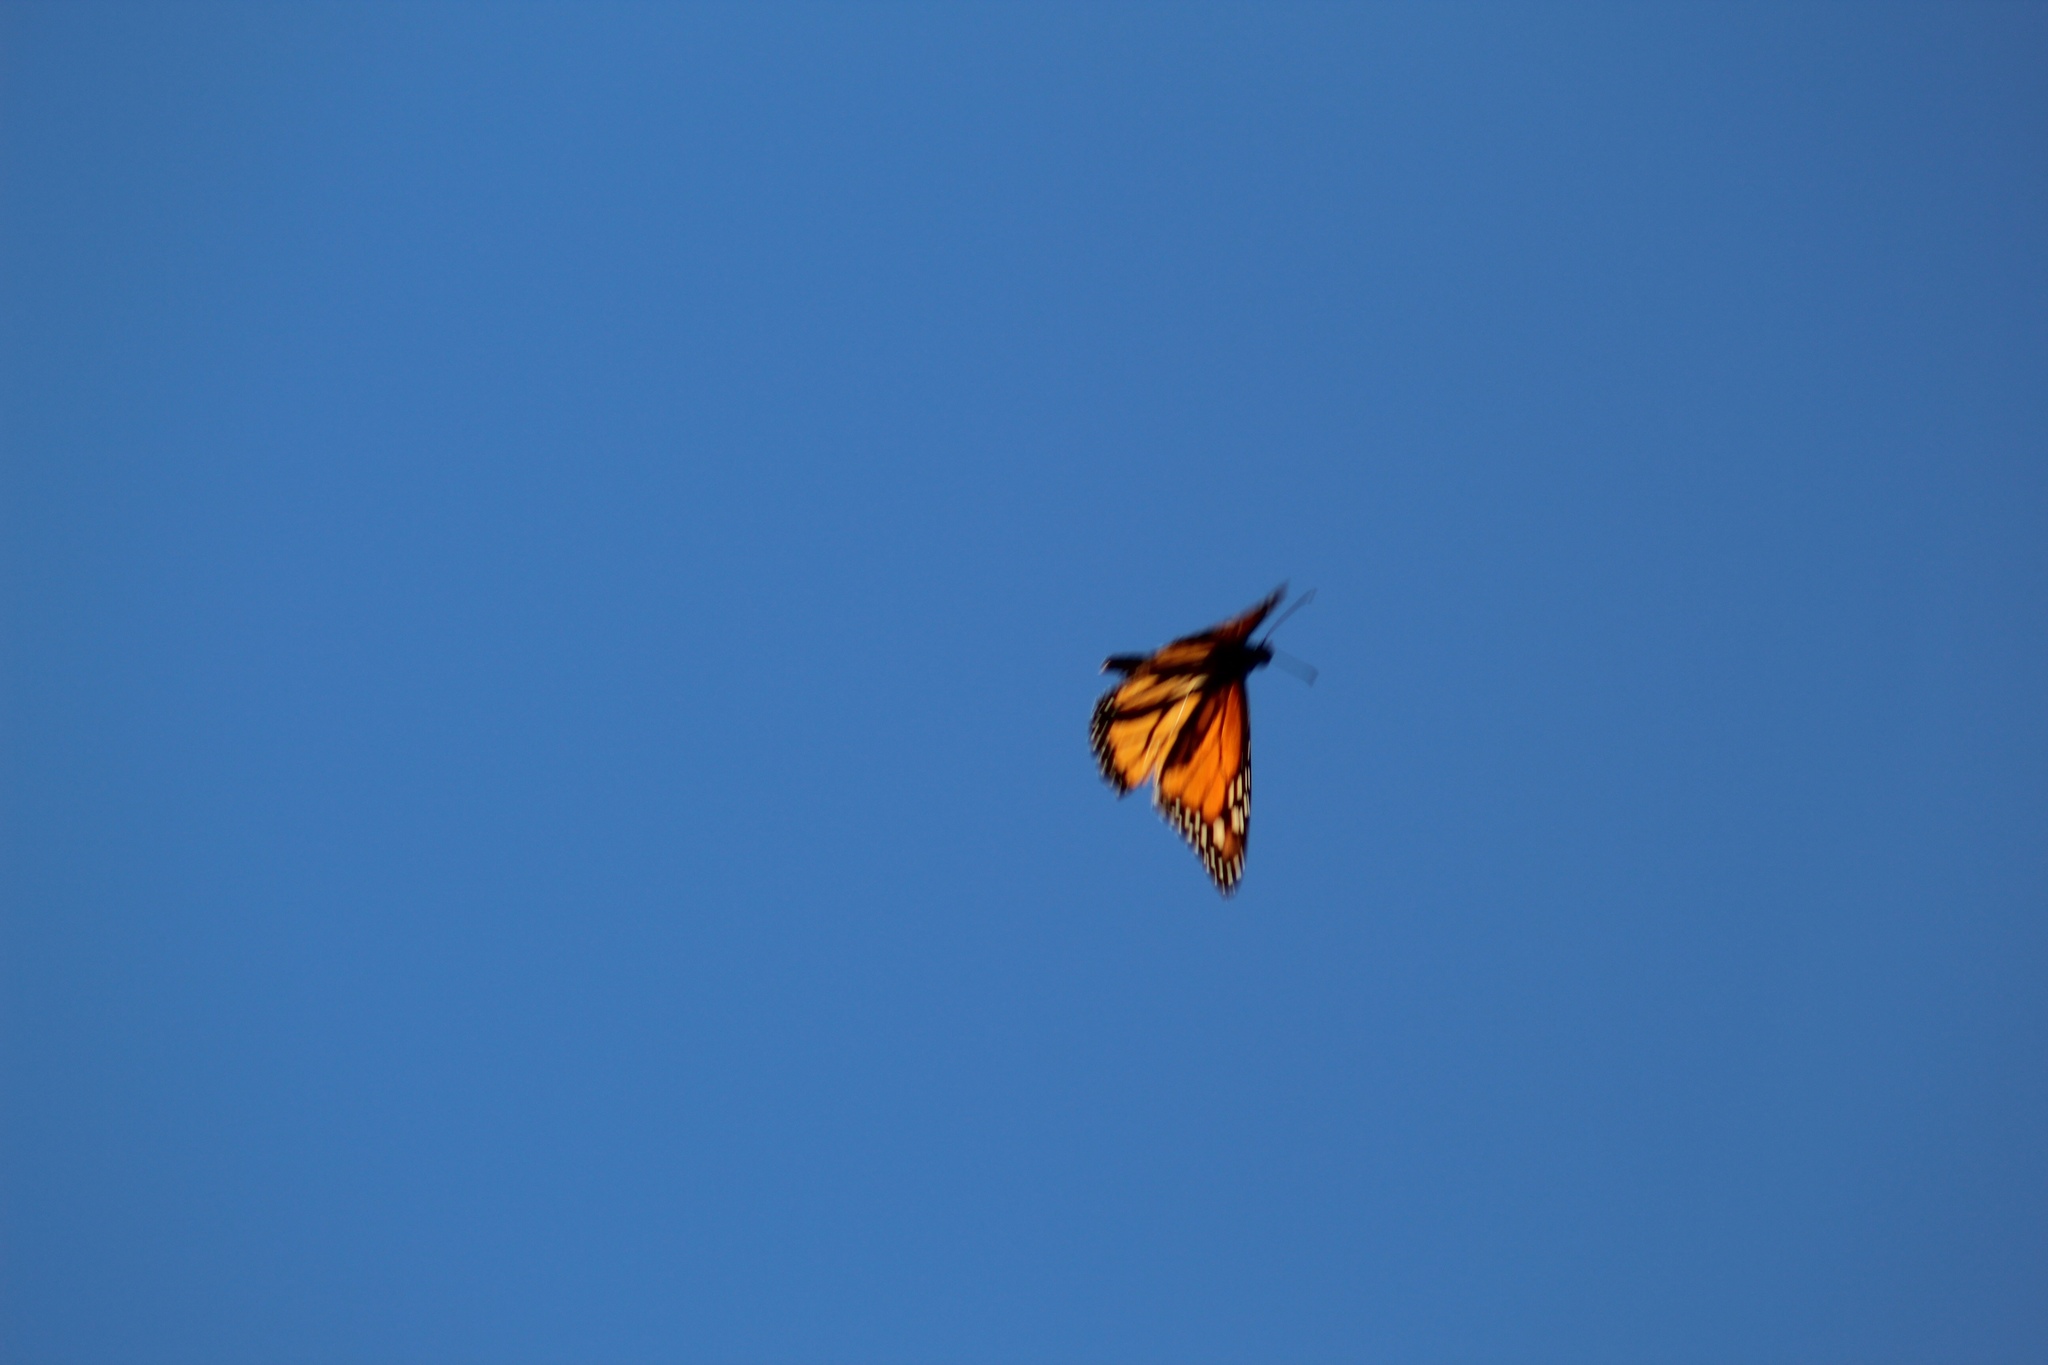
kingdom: Animalia
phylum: Arthropoda
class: Insecta
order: Lepidoptera
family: Nymphalidae
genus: Danaus
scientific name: Danaus plexippus
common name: Monarch
